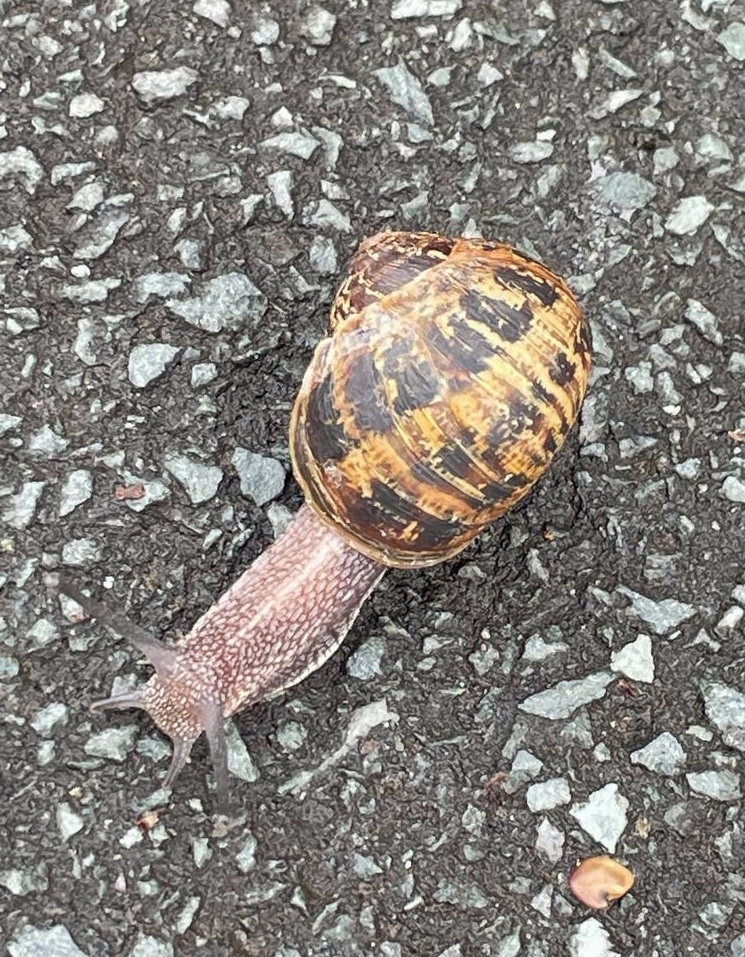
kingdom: Animalia
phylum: Mollusca
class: Gastropoda
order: Stylommatophora
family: Helicidae
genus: Cornu
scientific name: Cornu aspersum
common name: Brown garden snail
